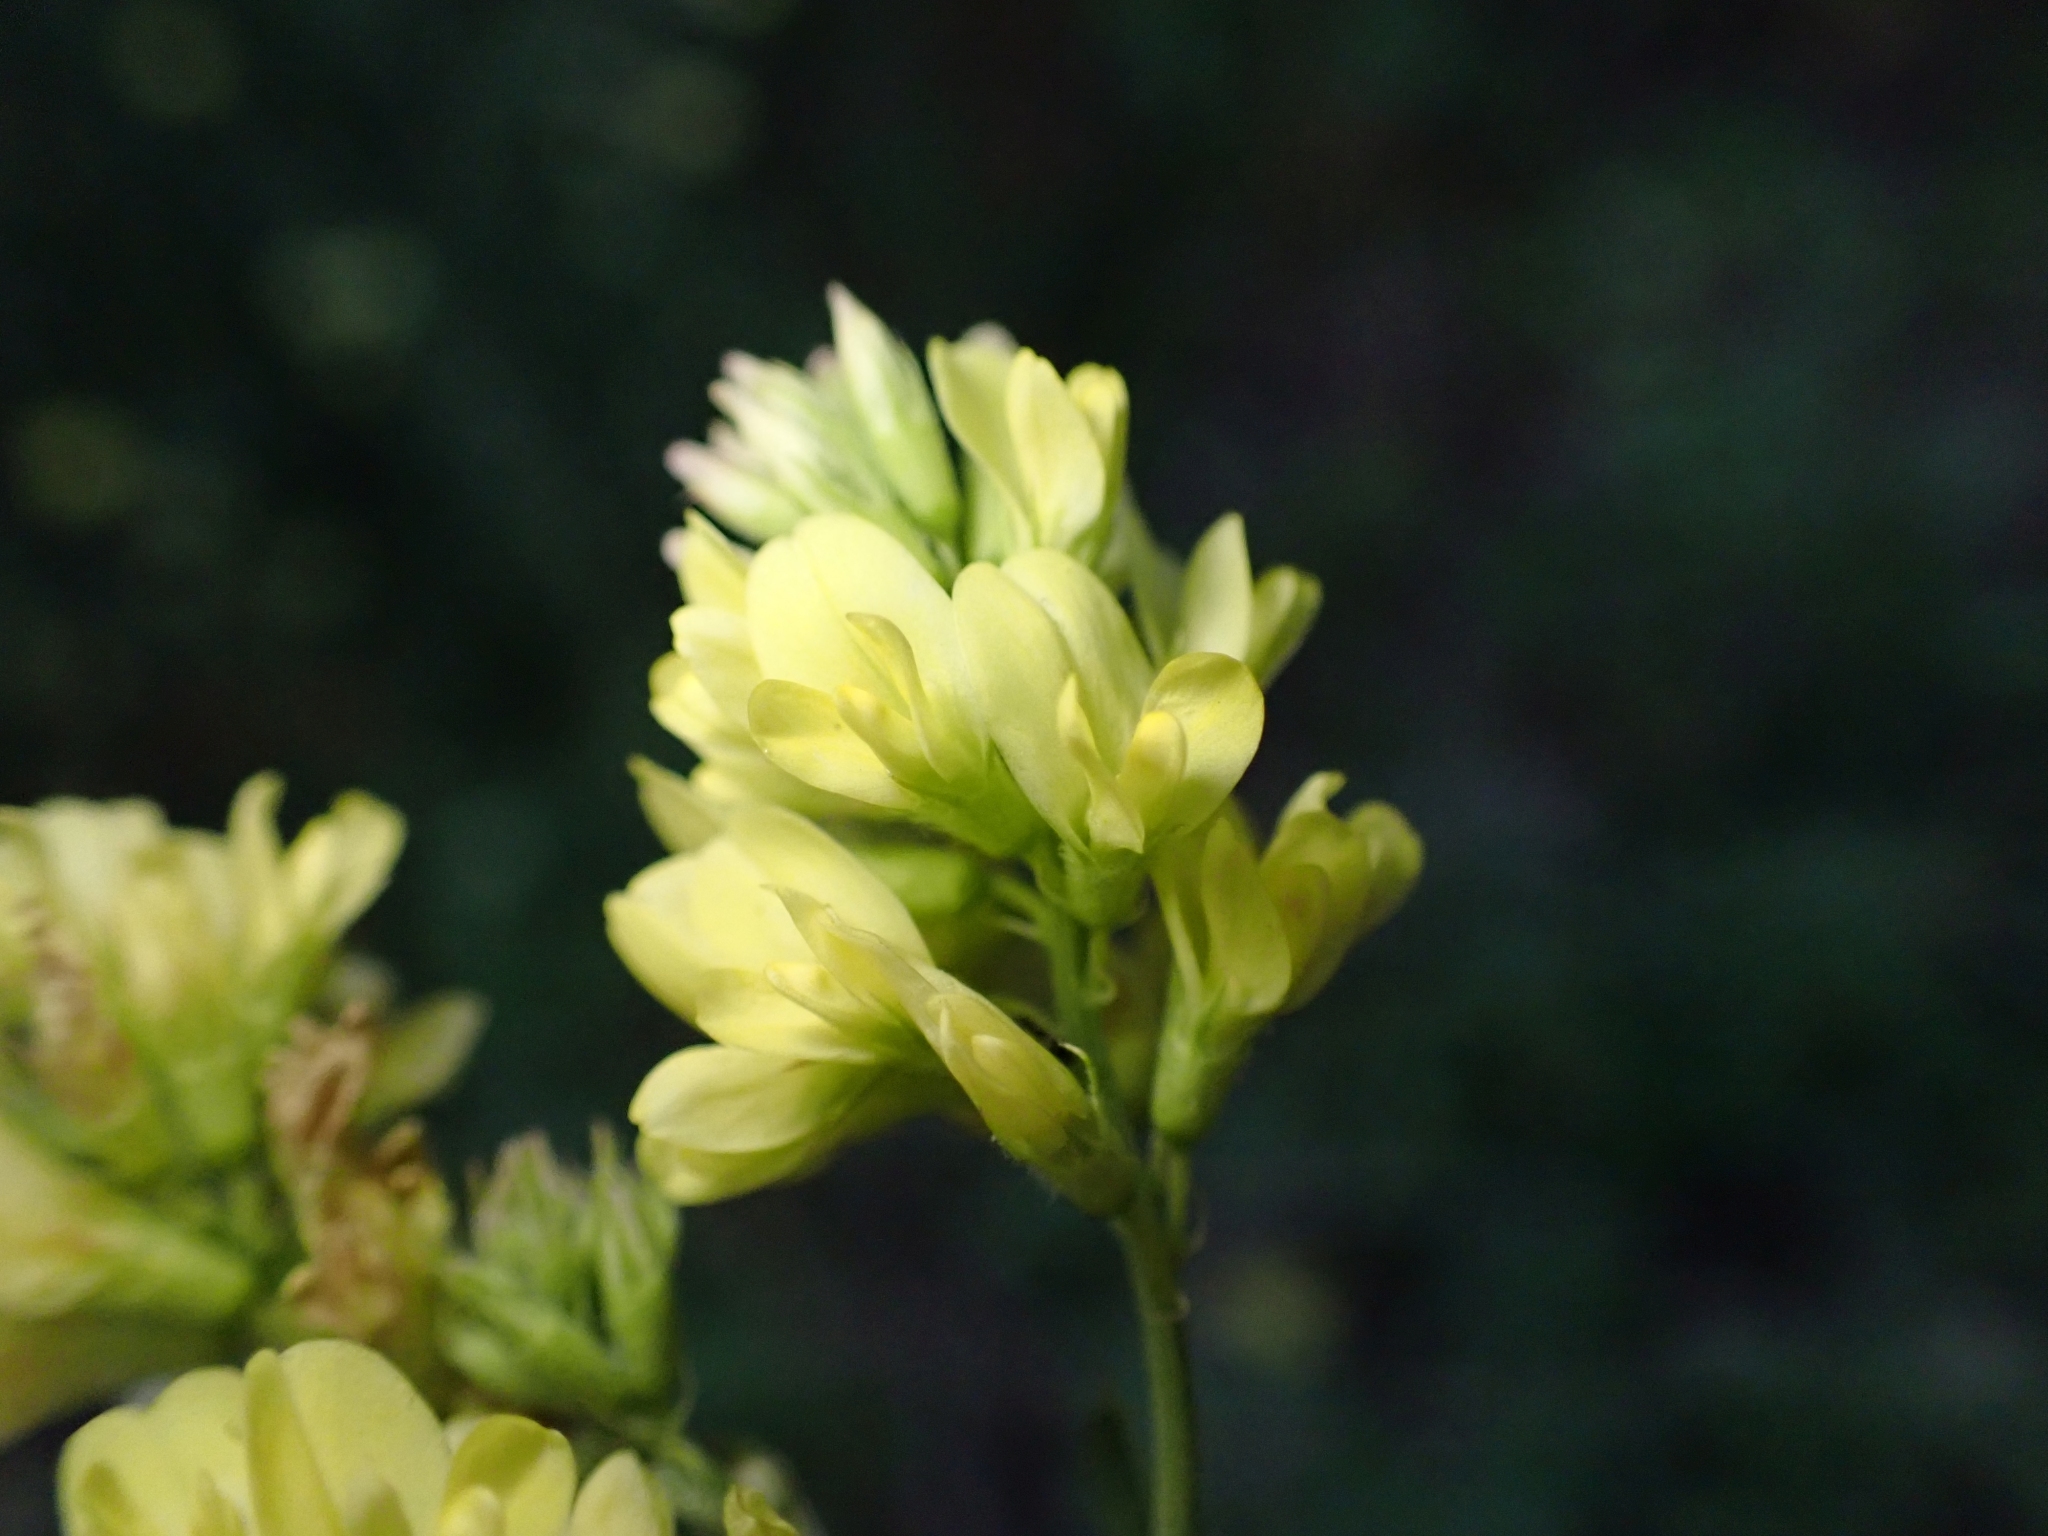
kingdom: Plantae
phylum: Tracheophyta
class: Magnoliopsida
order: Fabales
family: Fabaceae
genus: Medicago
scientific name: Medicago varia
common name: Sand lucerne
